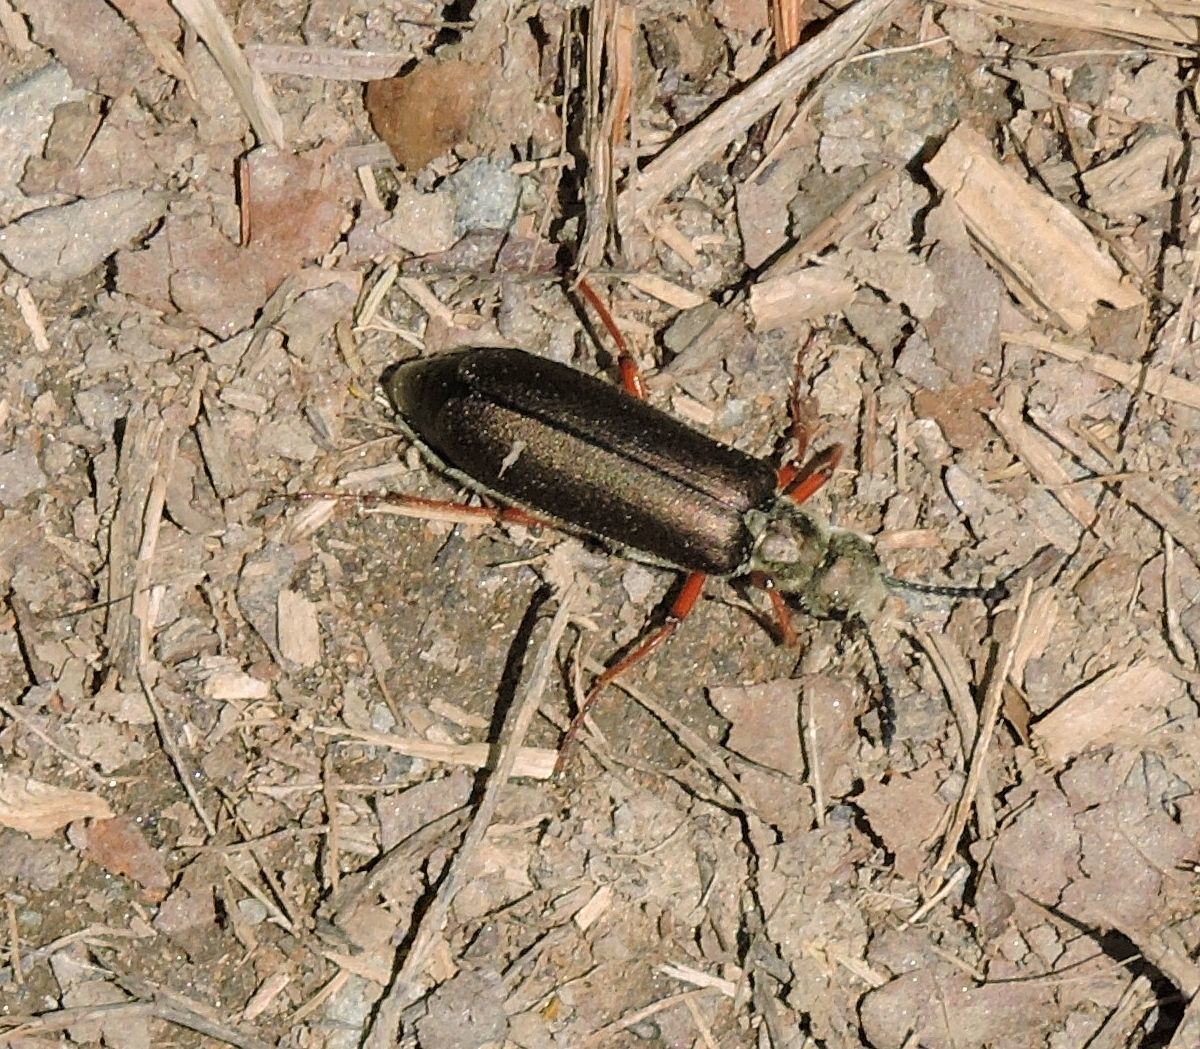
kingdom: Animalia
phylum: Arthropoda
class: Insecta
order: Coleoptera
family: Meloidae
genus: Lytta
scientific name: Lytta aenea
